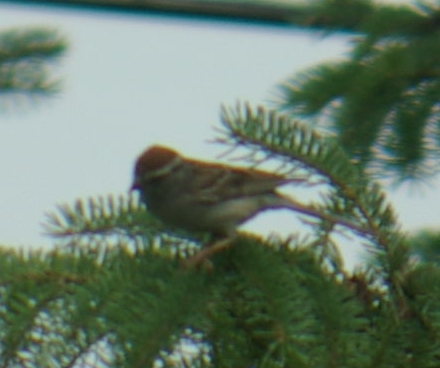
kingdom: Animalia
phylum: Chordata
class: Aves
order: Passeriformes
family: Passerellidae
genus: Spizella
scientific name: Spizella passerina
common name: Chipping sparrow
